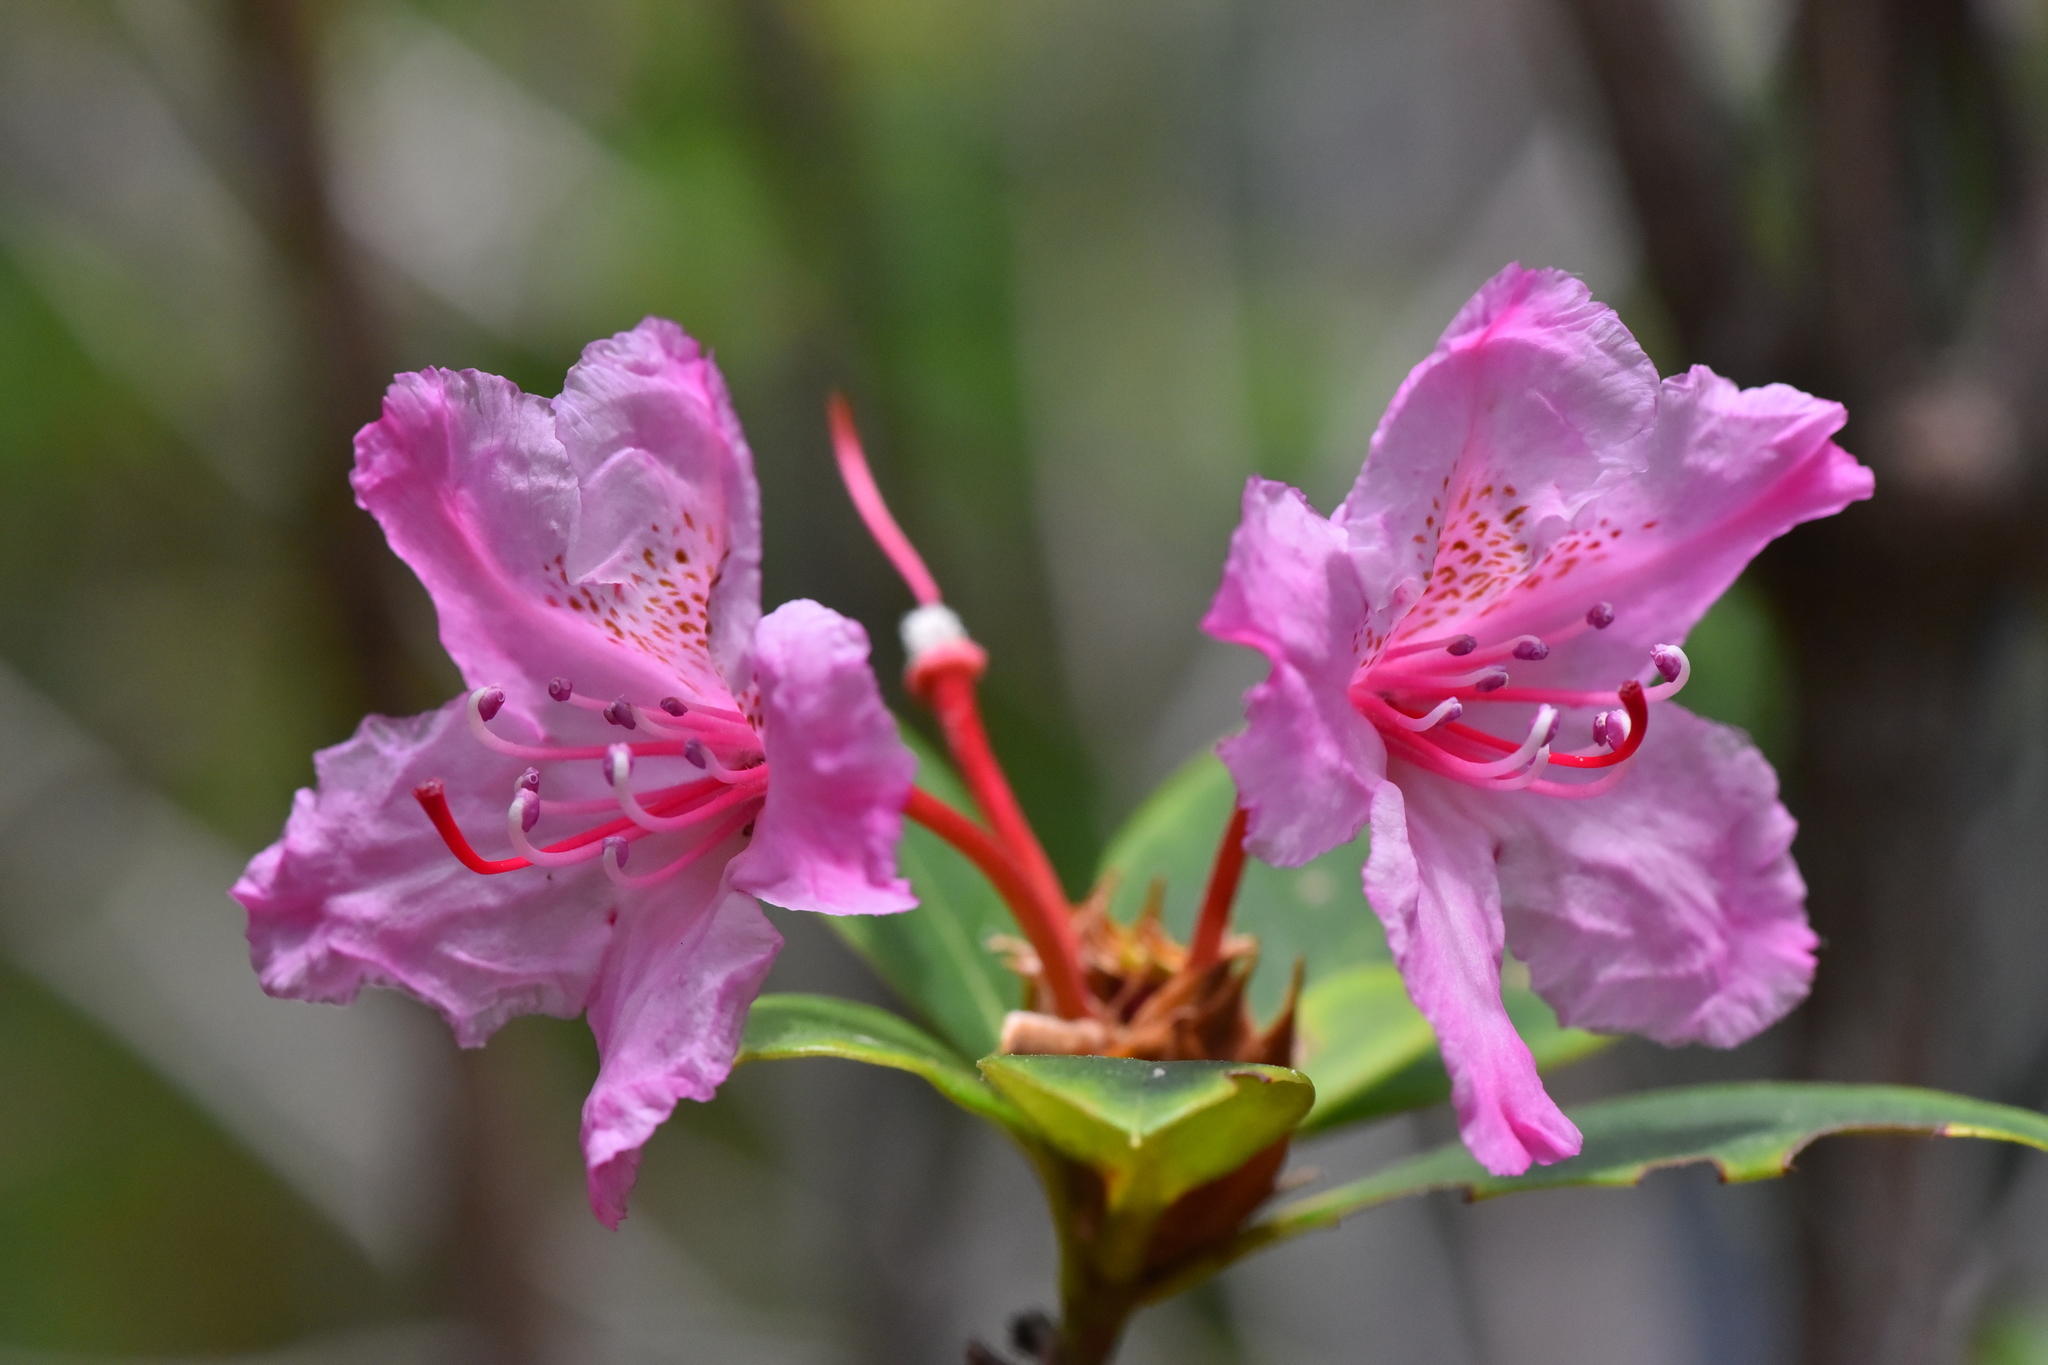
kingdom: Plantae
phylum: Tracheophyta
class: Magnoliopsida
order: Ericales
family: Ericaceae
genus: Rhododendron
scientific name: Rhododendron macrophyllum
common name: California rose bay
